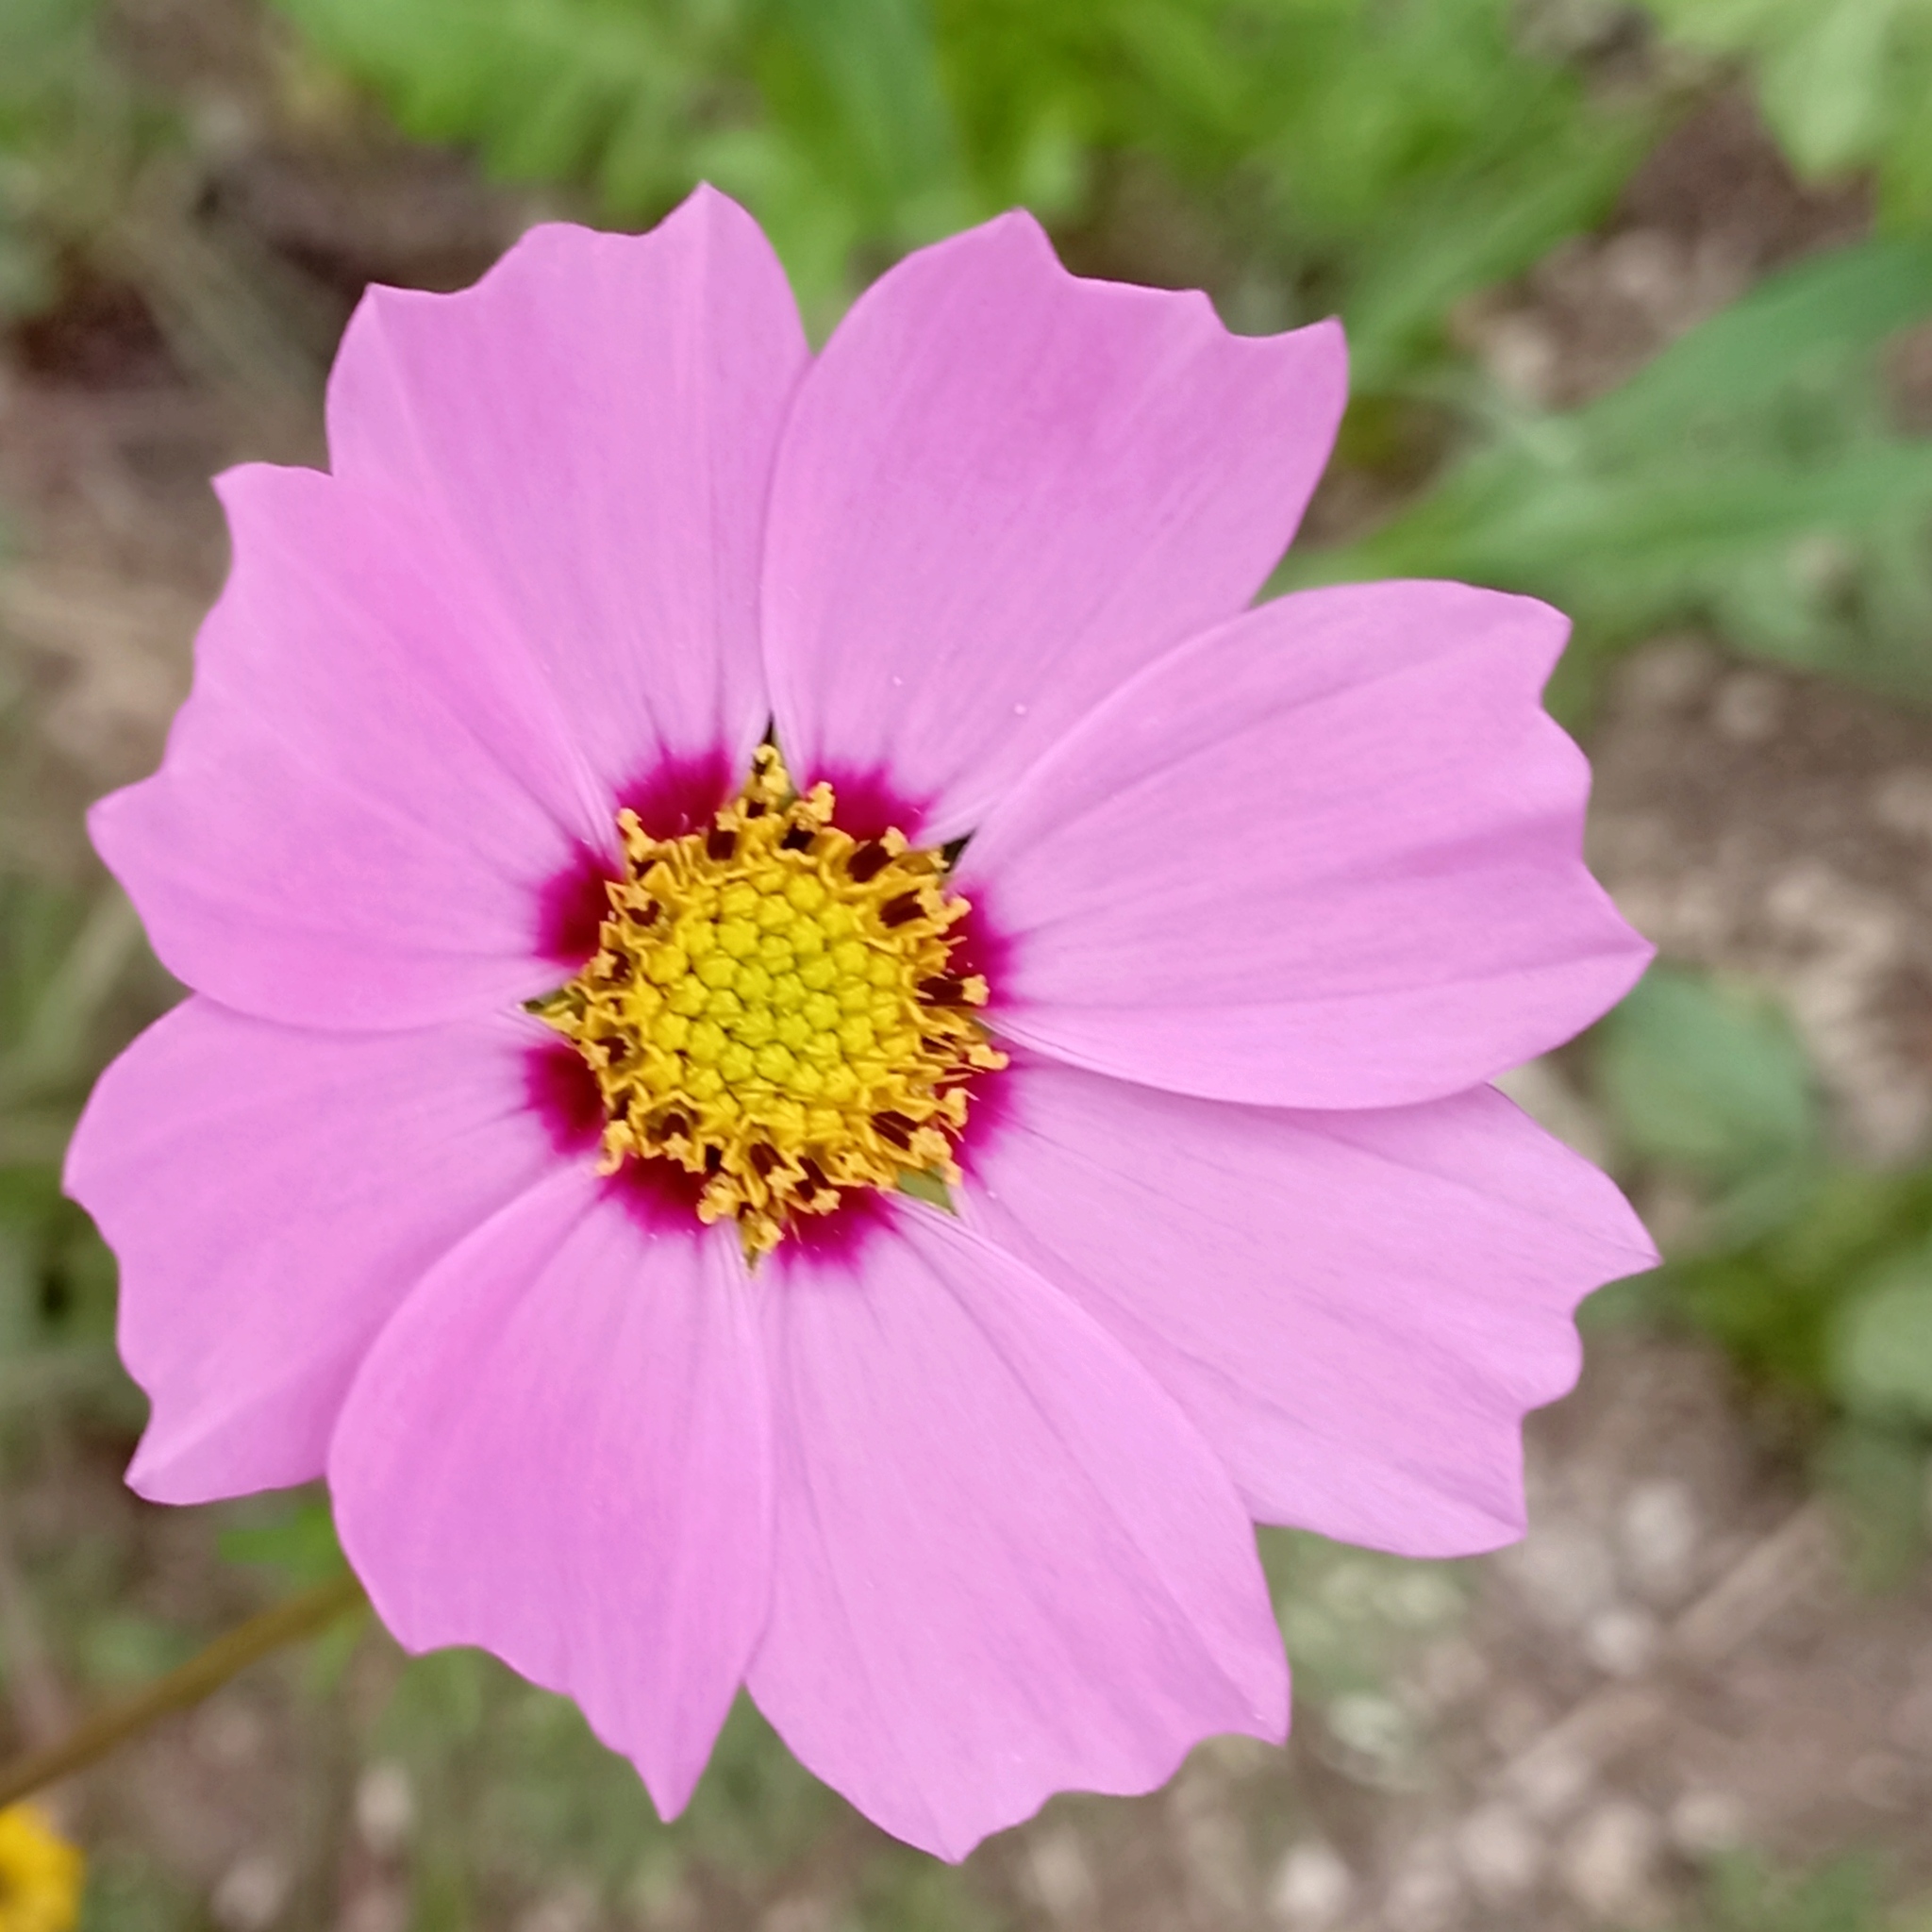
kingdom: Plantae
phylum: Tracheophyta
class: Magnoliopsida
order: Asterales
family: Asteraceae
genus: Cosmos
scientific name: Cosmos bipinnatus
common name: Garden cosmos
